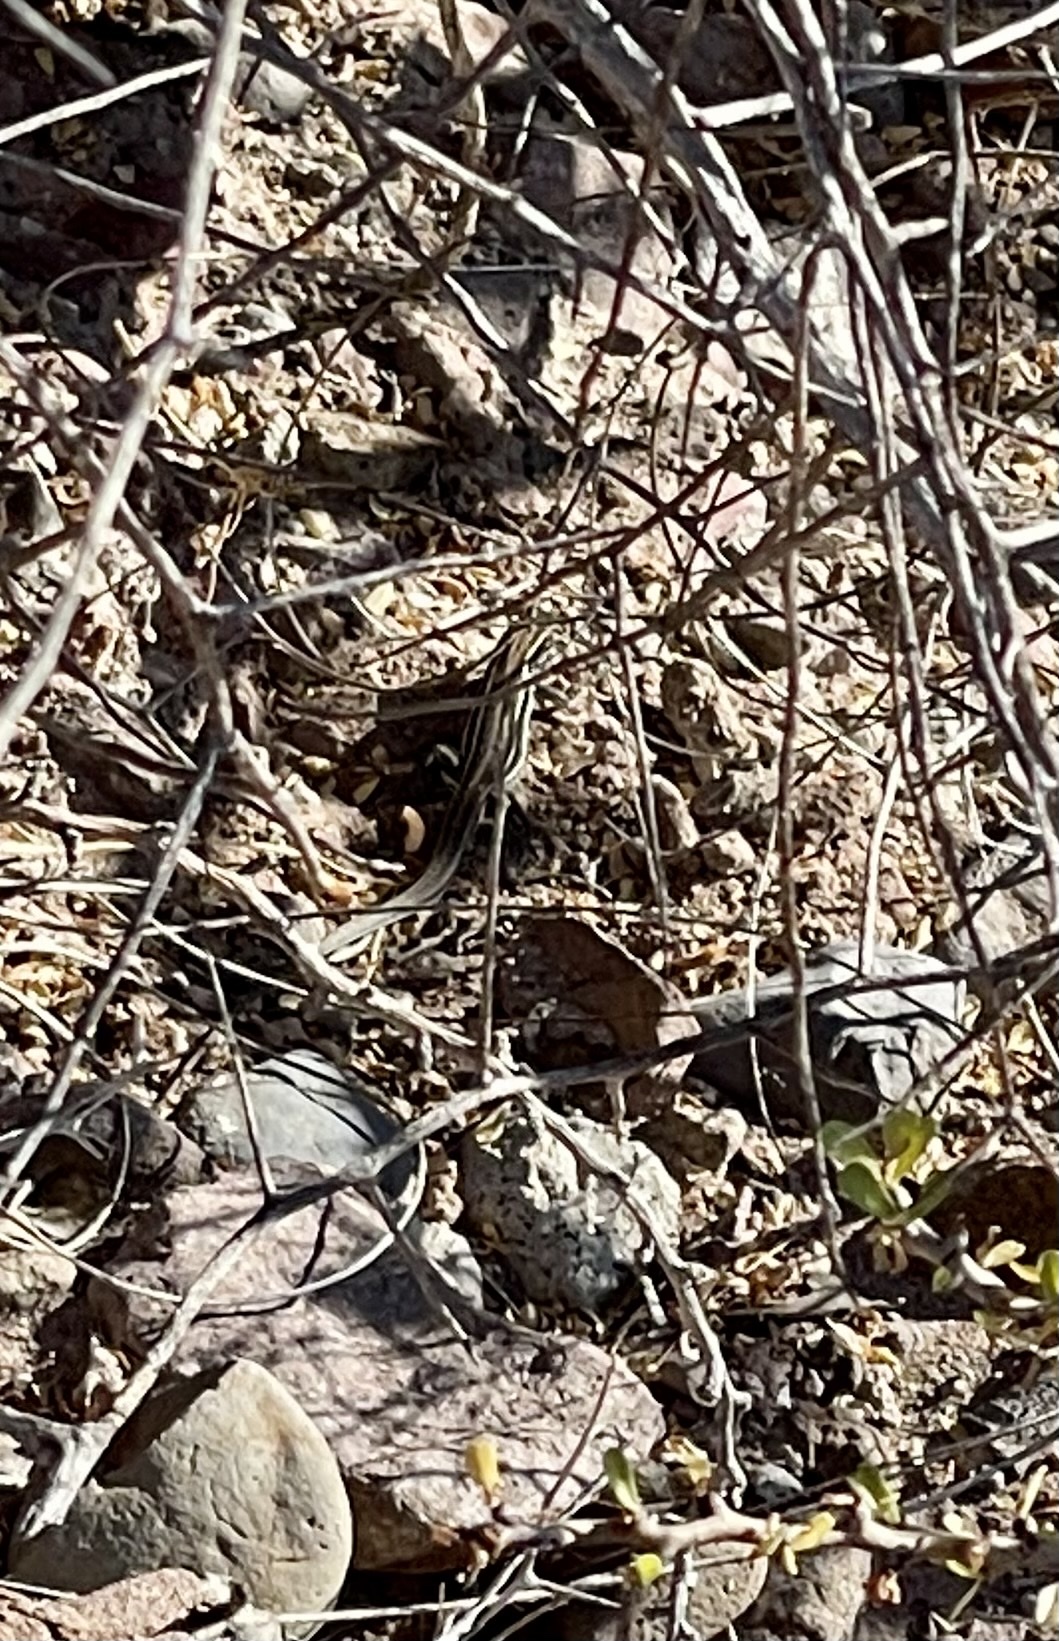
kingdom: Animalia
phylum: Chordata
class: Squamata
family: Teiidae
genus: Aspidoscelis
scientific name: Aspidoscelis hyperythrus
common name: Orange-throated race-runner
